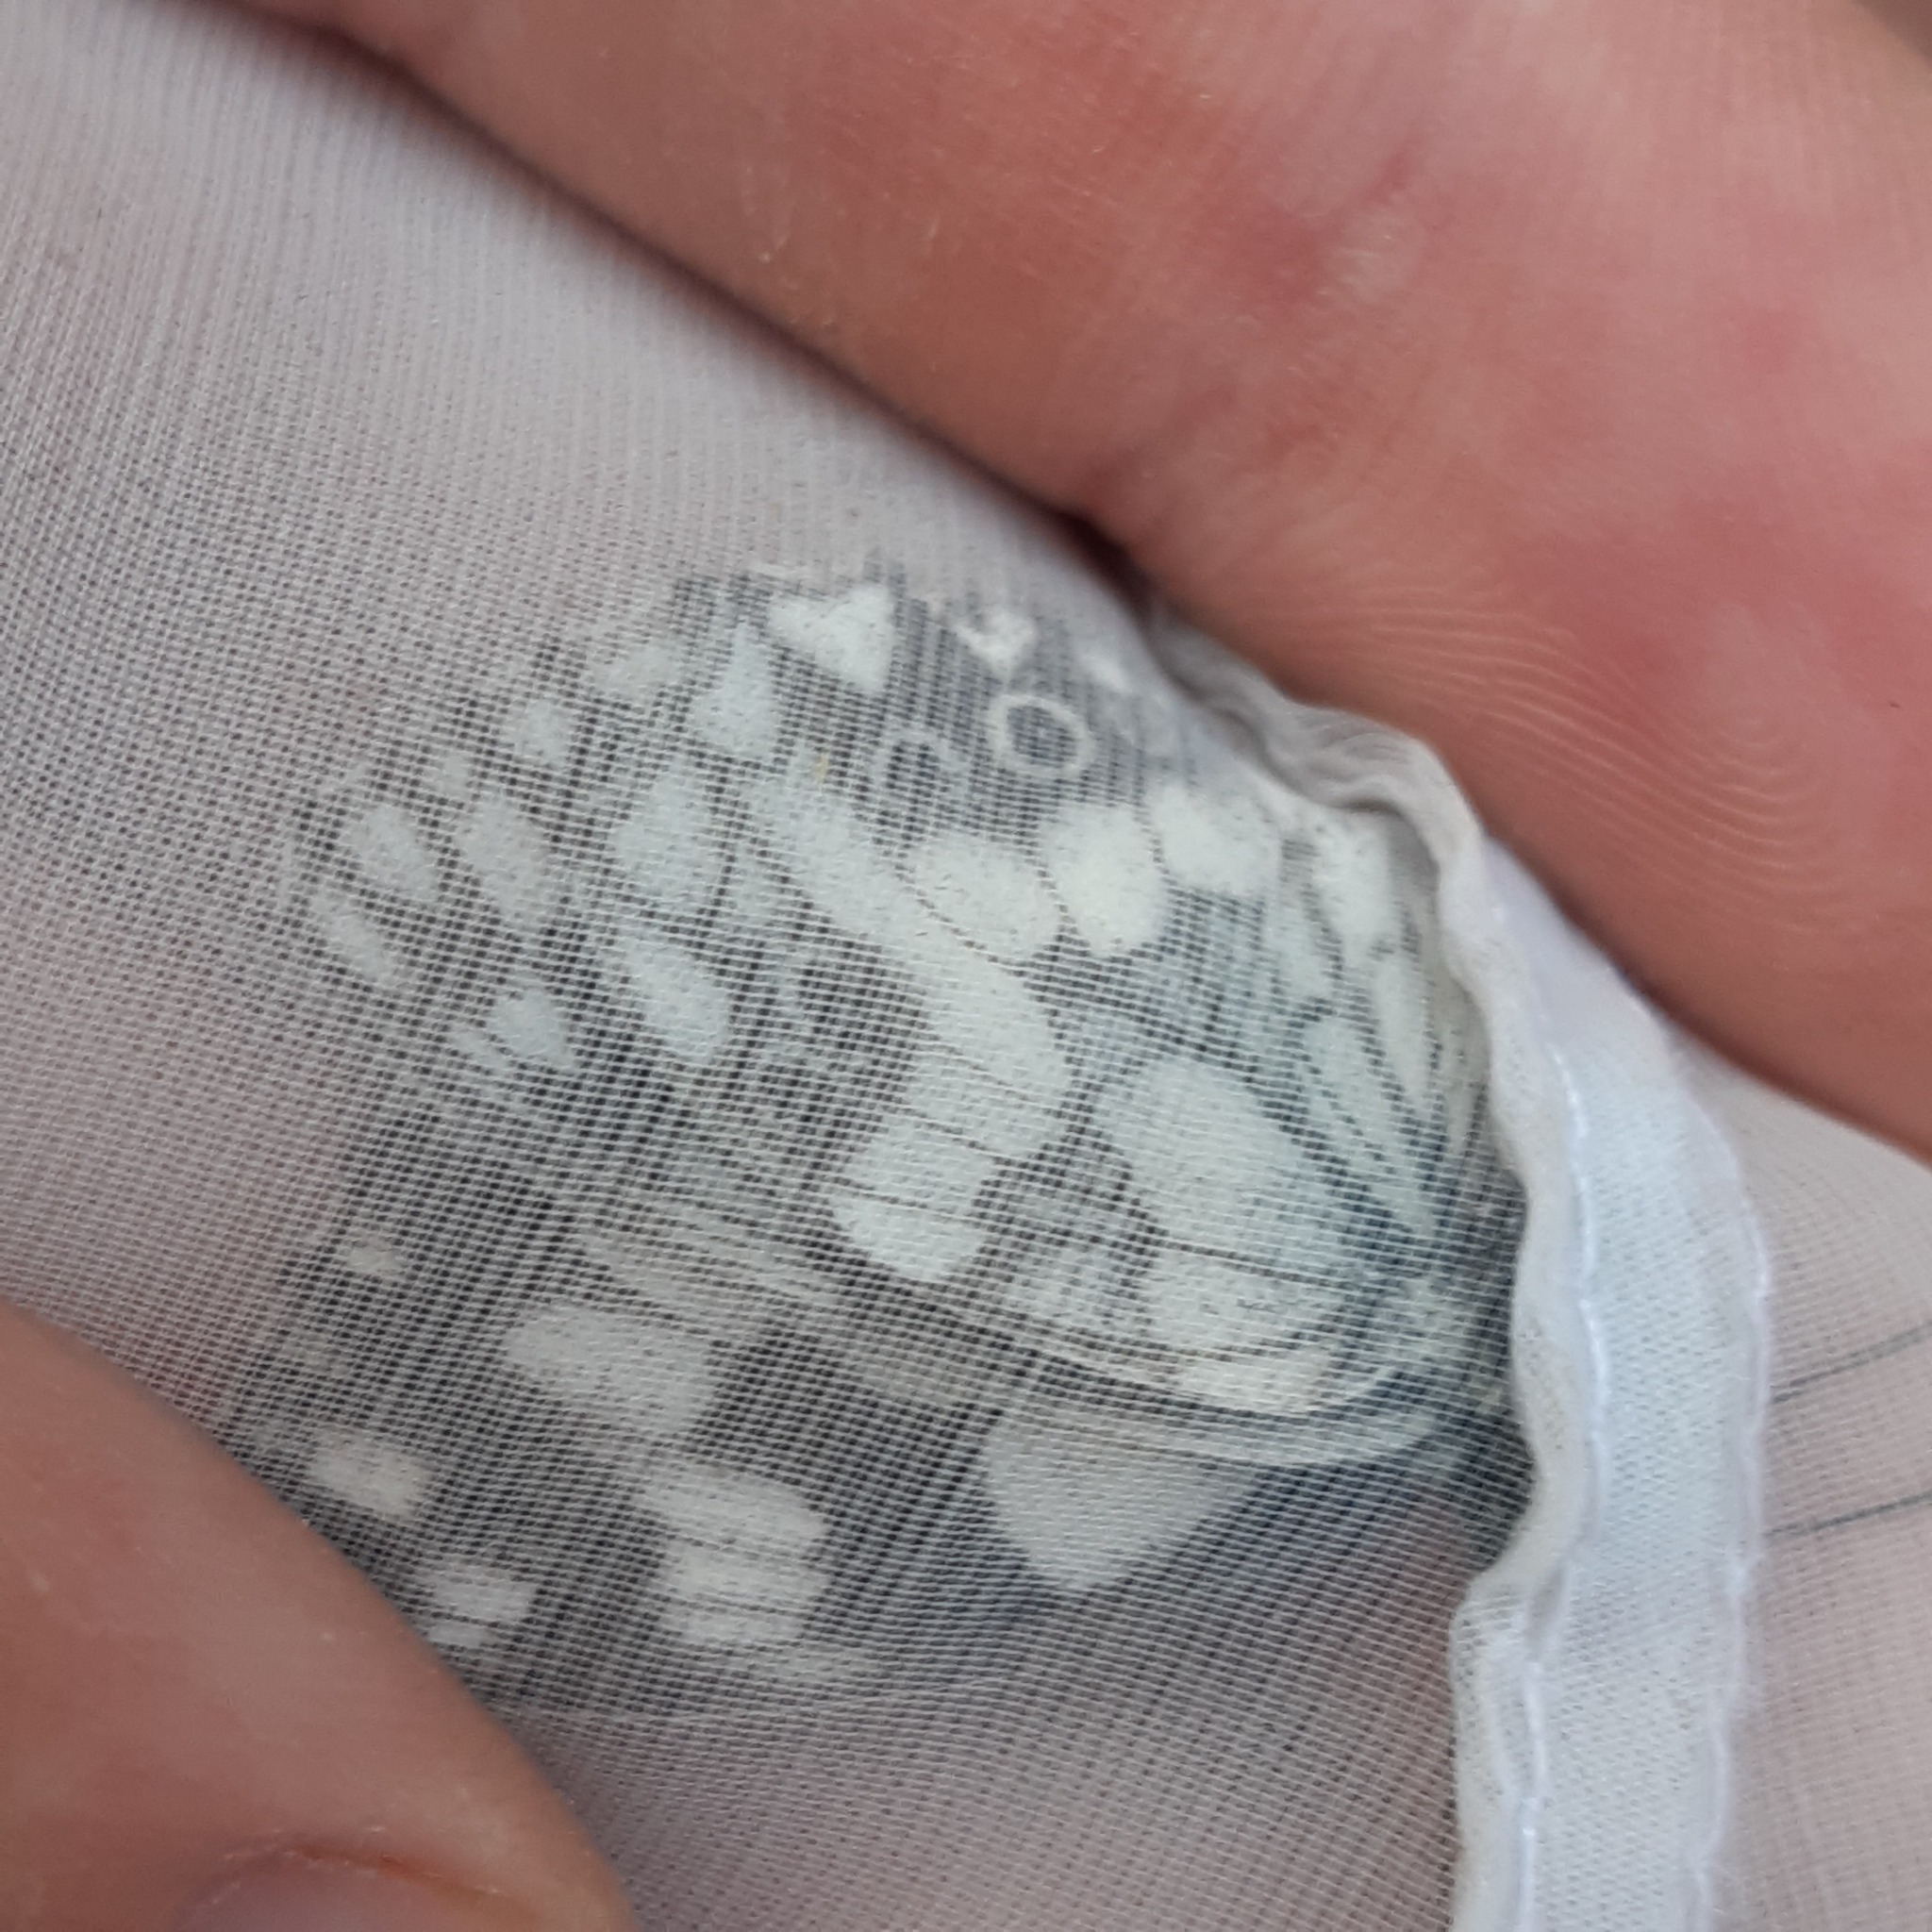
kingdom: Animalia
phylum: Arthropoda
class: Insecta
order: Lepidoptera
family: Nymphalidae
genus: Melanargia
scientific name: Melanargia galathea
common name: Marbled white
